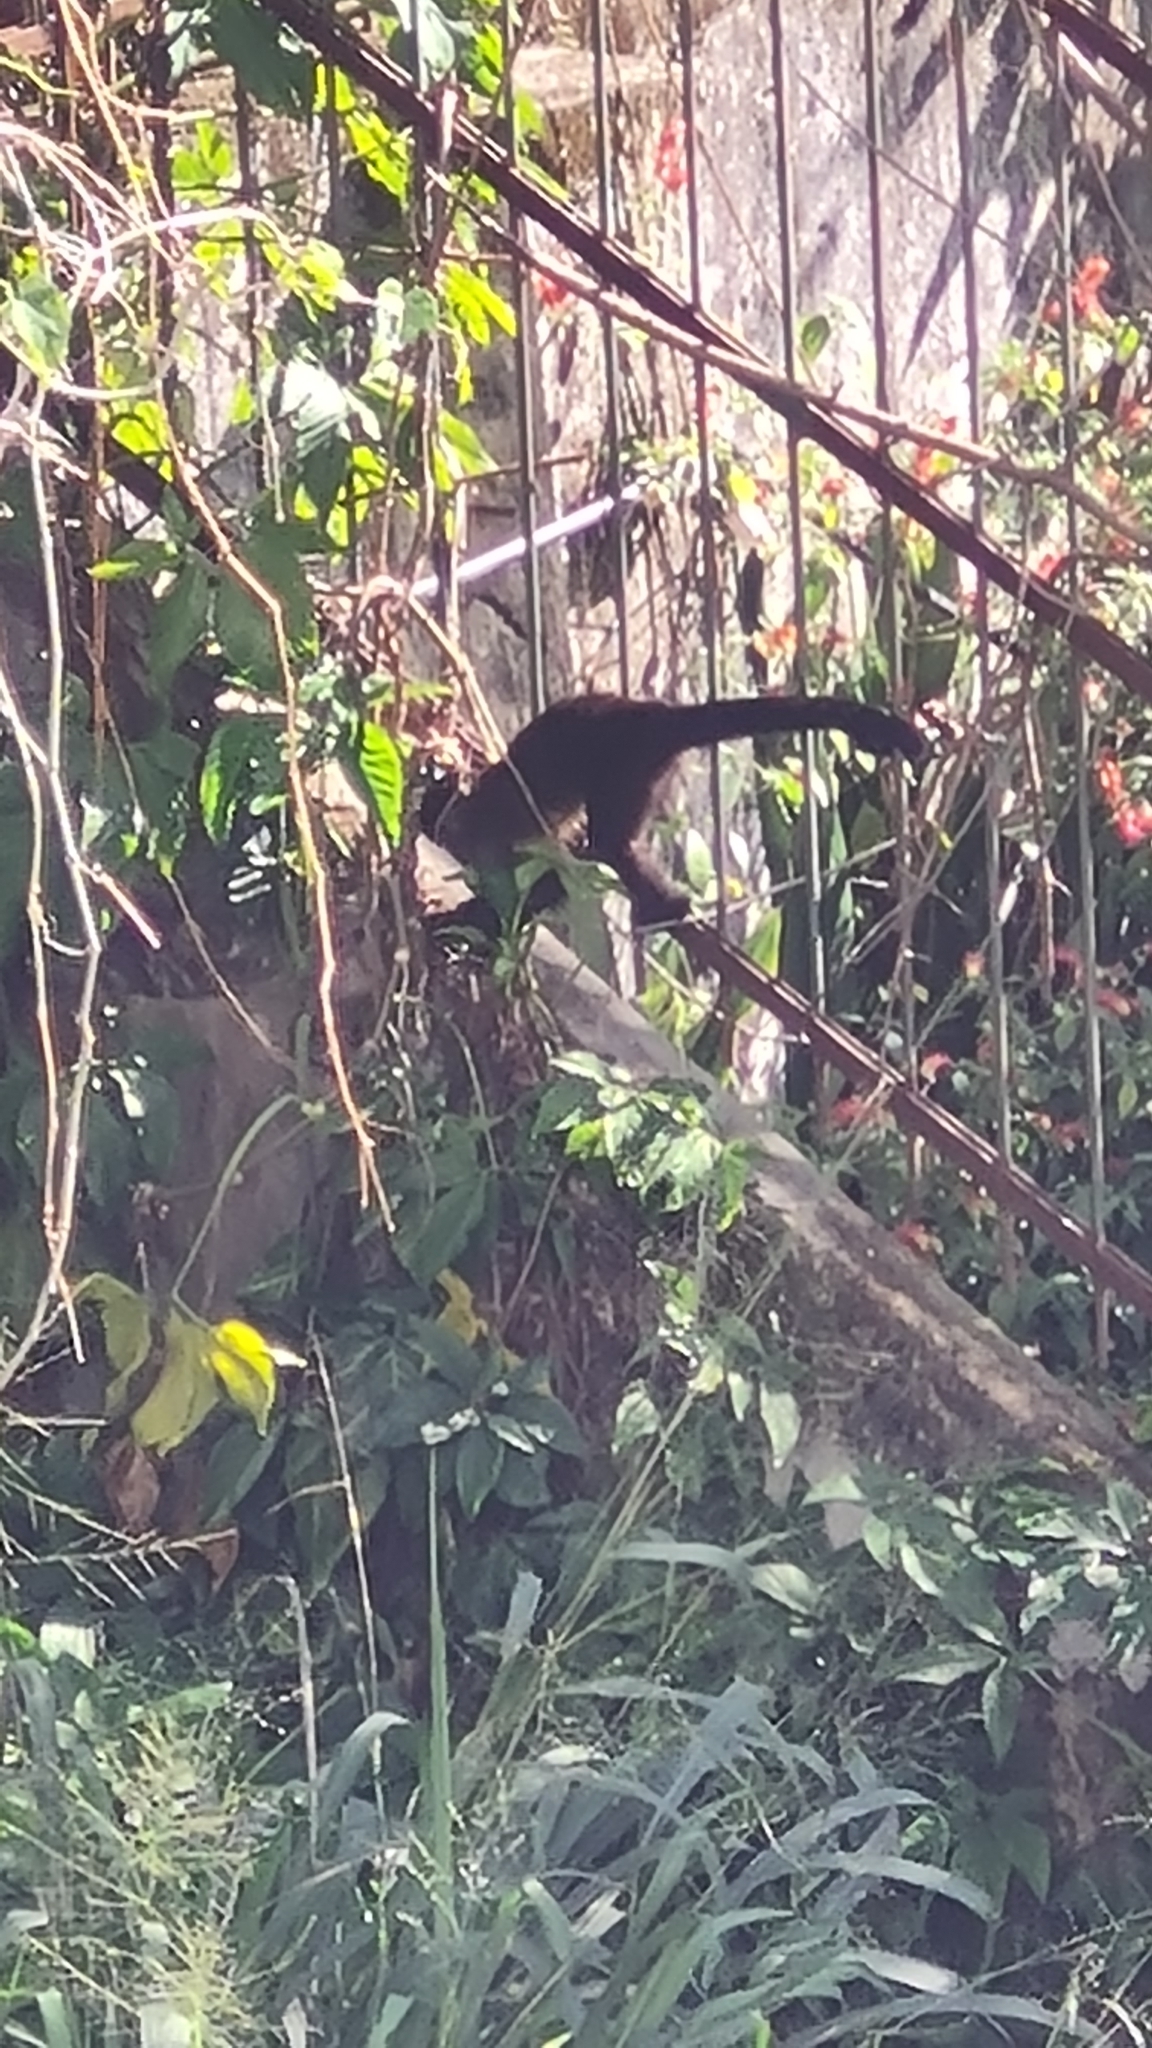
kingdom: Animalia
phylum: Chordata
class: Mammalia
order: Primates
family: Cebidae
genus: Sapajus
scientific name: Sapajus nigritus
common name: Black capuchin
